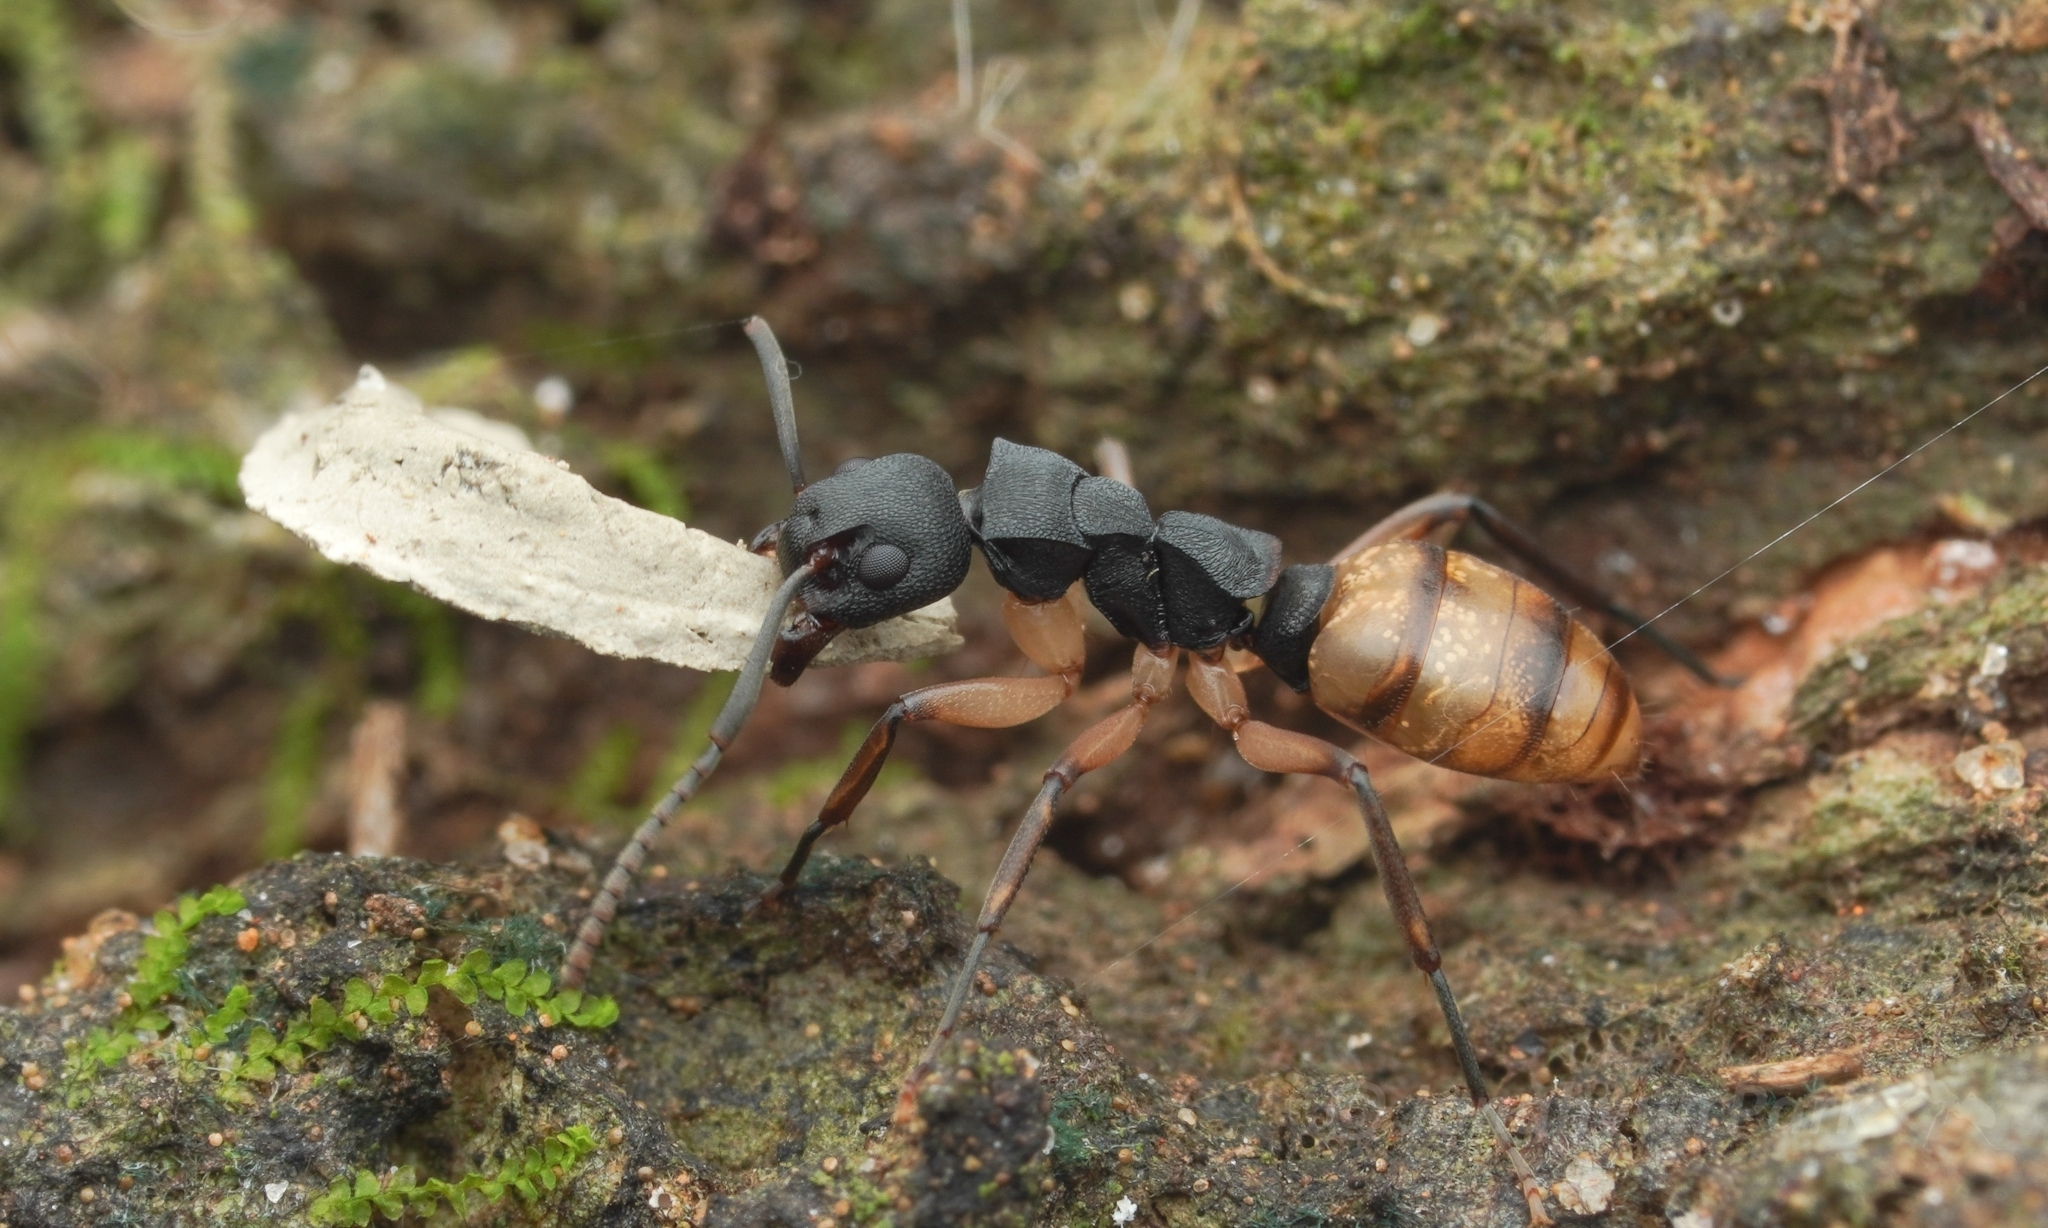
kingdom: Animalia
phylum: Arthropoda
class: Insecta
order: Hymenoptera
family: Formicidae
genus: Dolichoderus
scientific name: Dolichoderus laminatus
